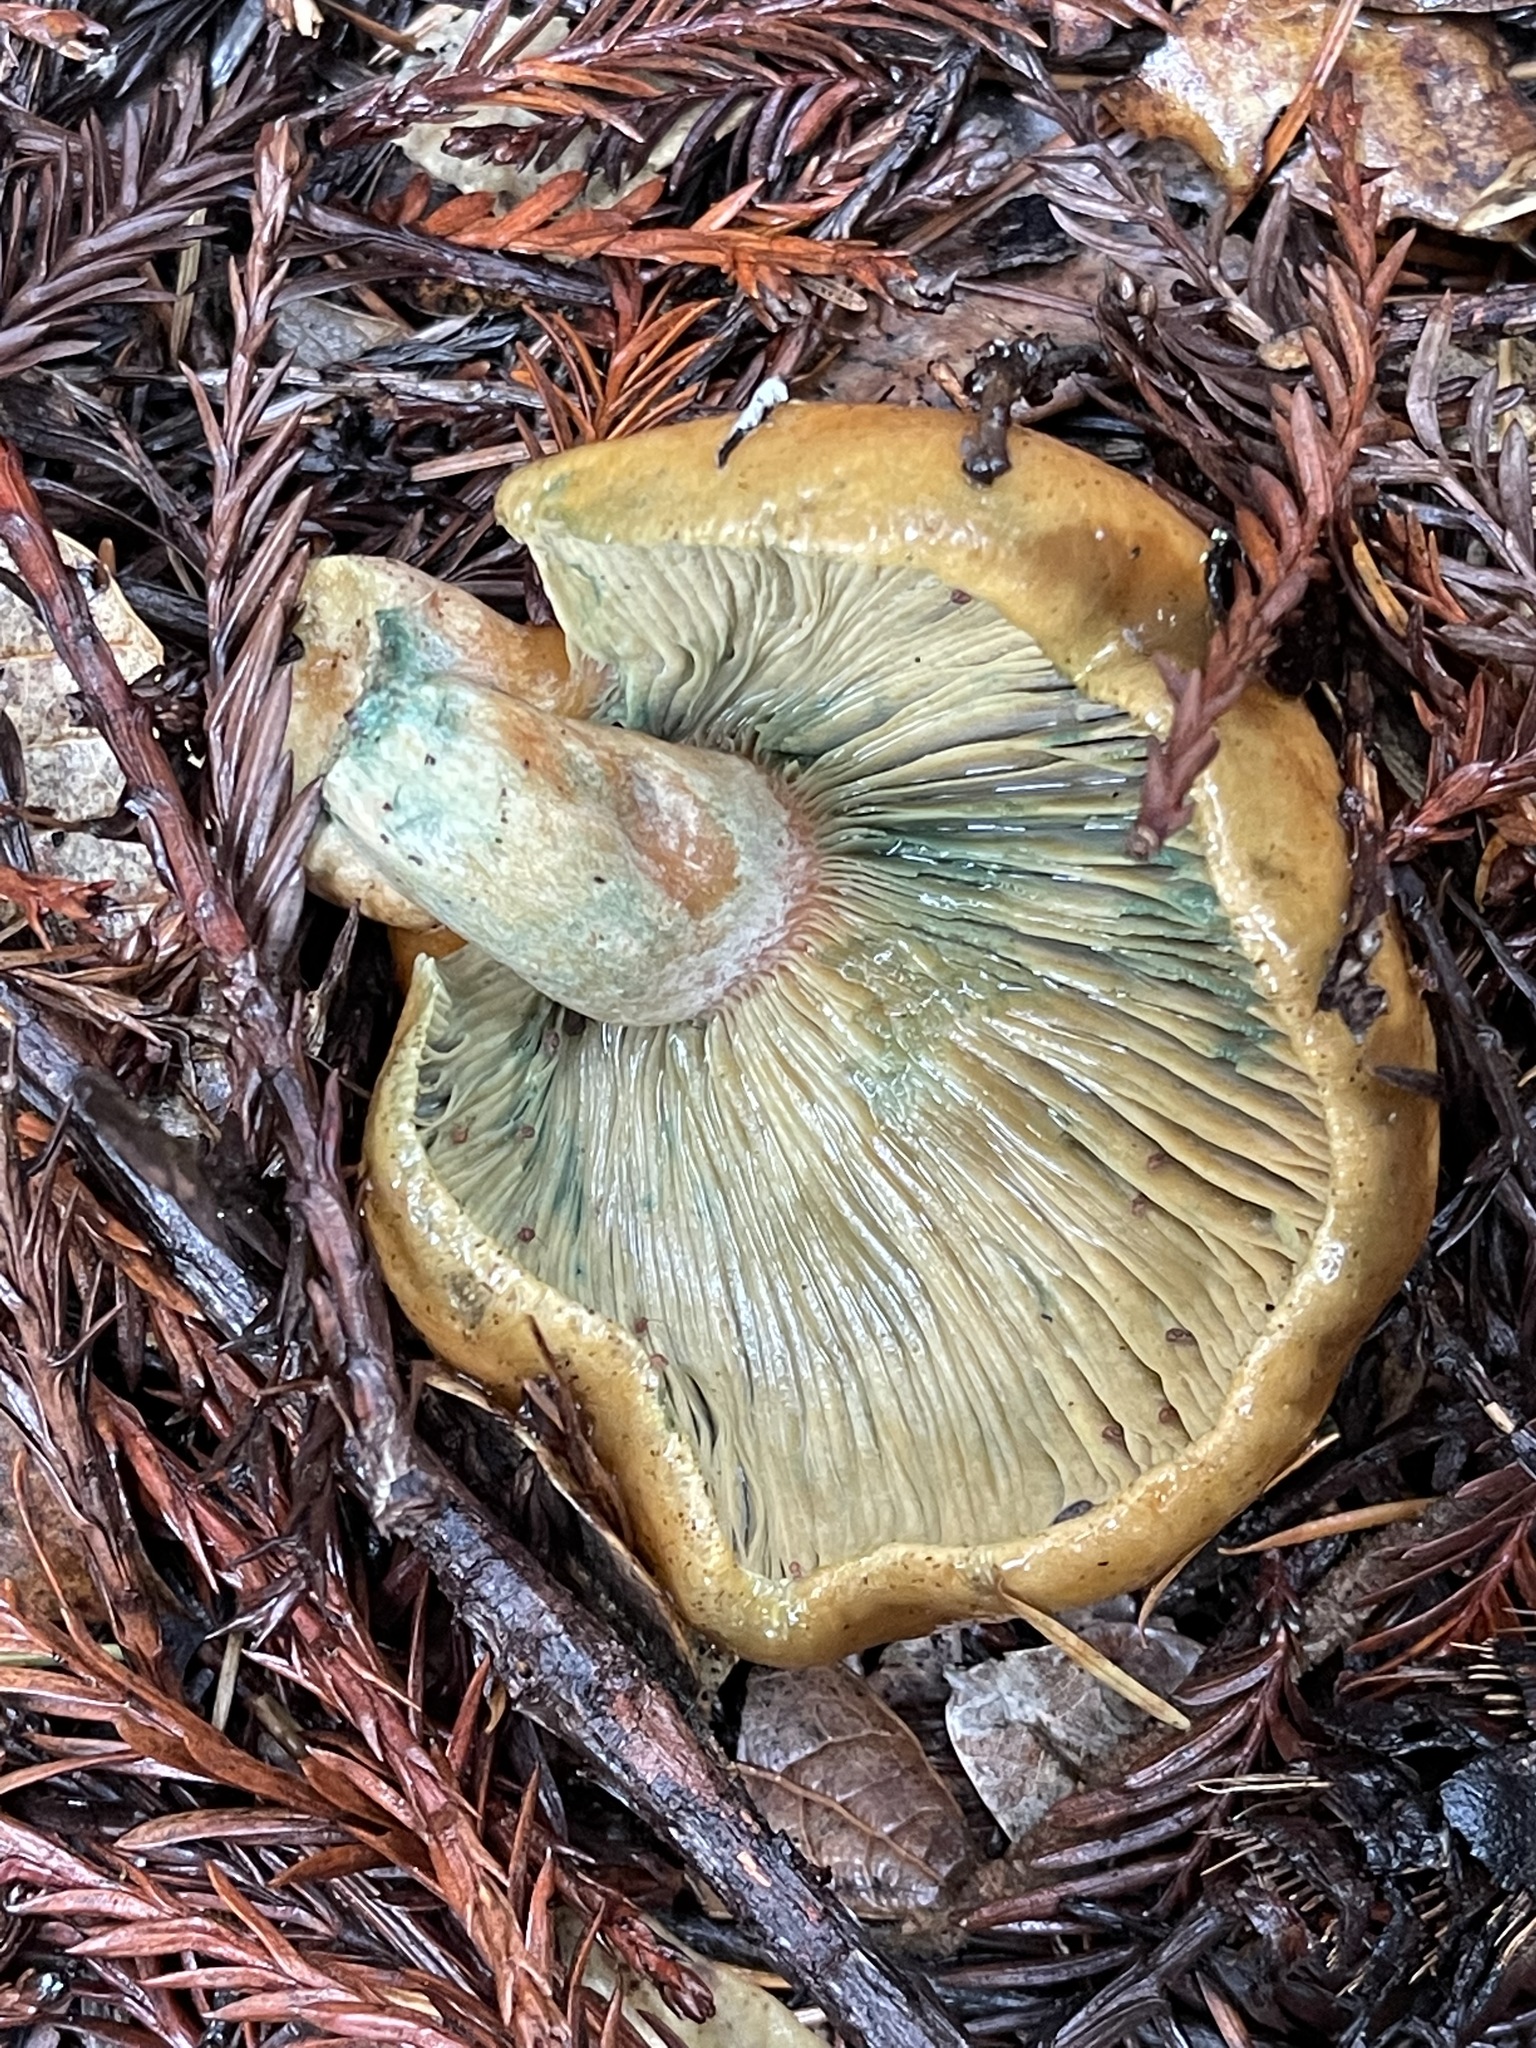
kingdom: Fungi
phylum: Basidiomycota
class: Agaricomycetes
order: Russulales
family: Russulaceae
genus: Lactarius
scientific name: Lactarius rubrilacteus
